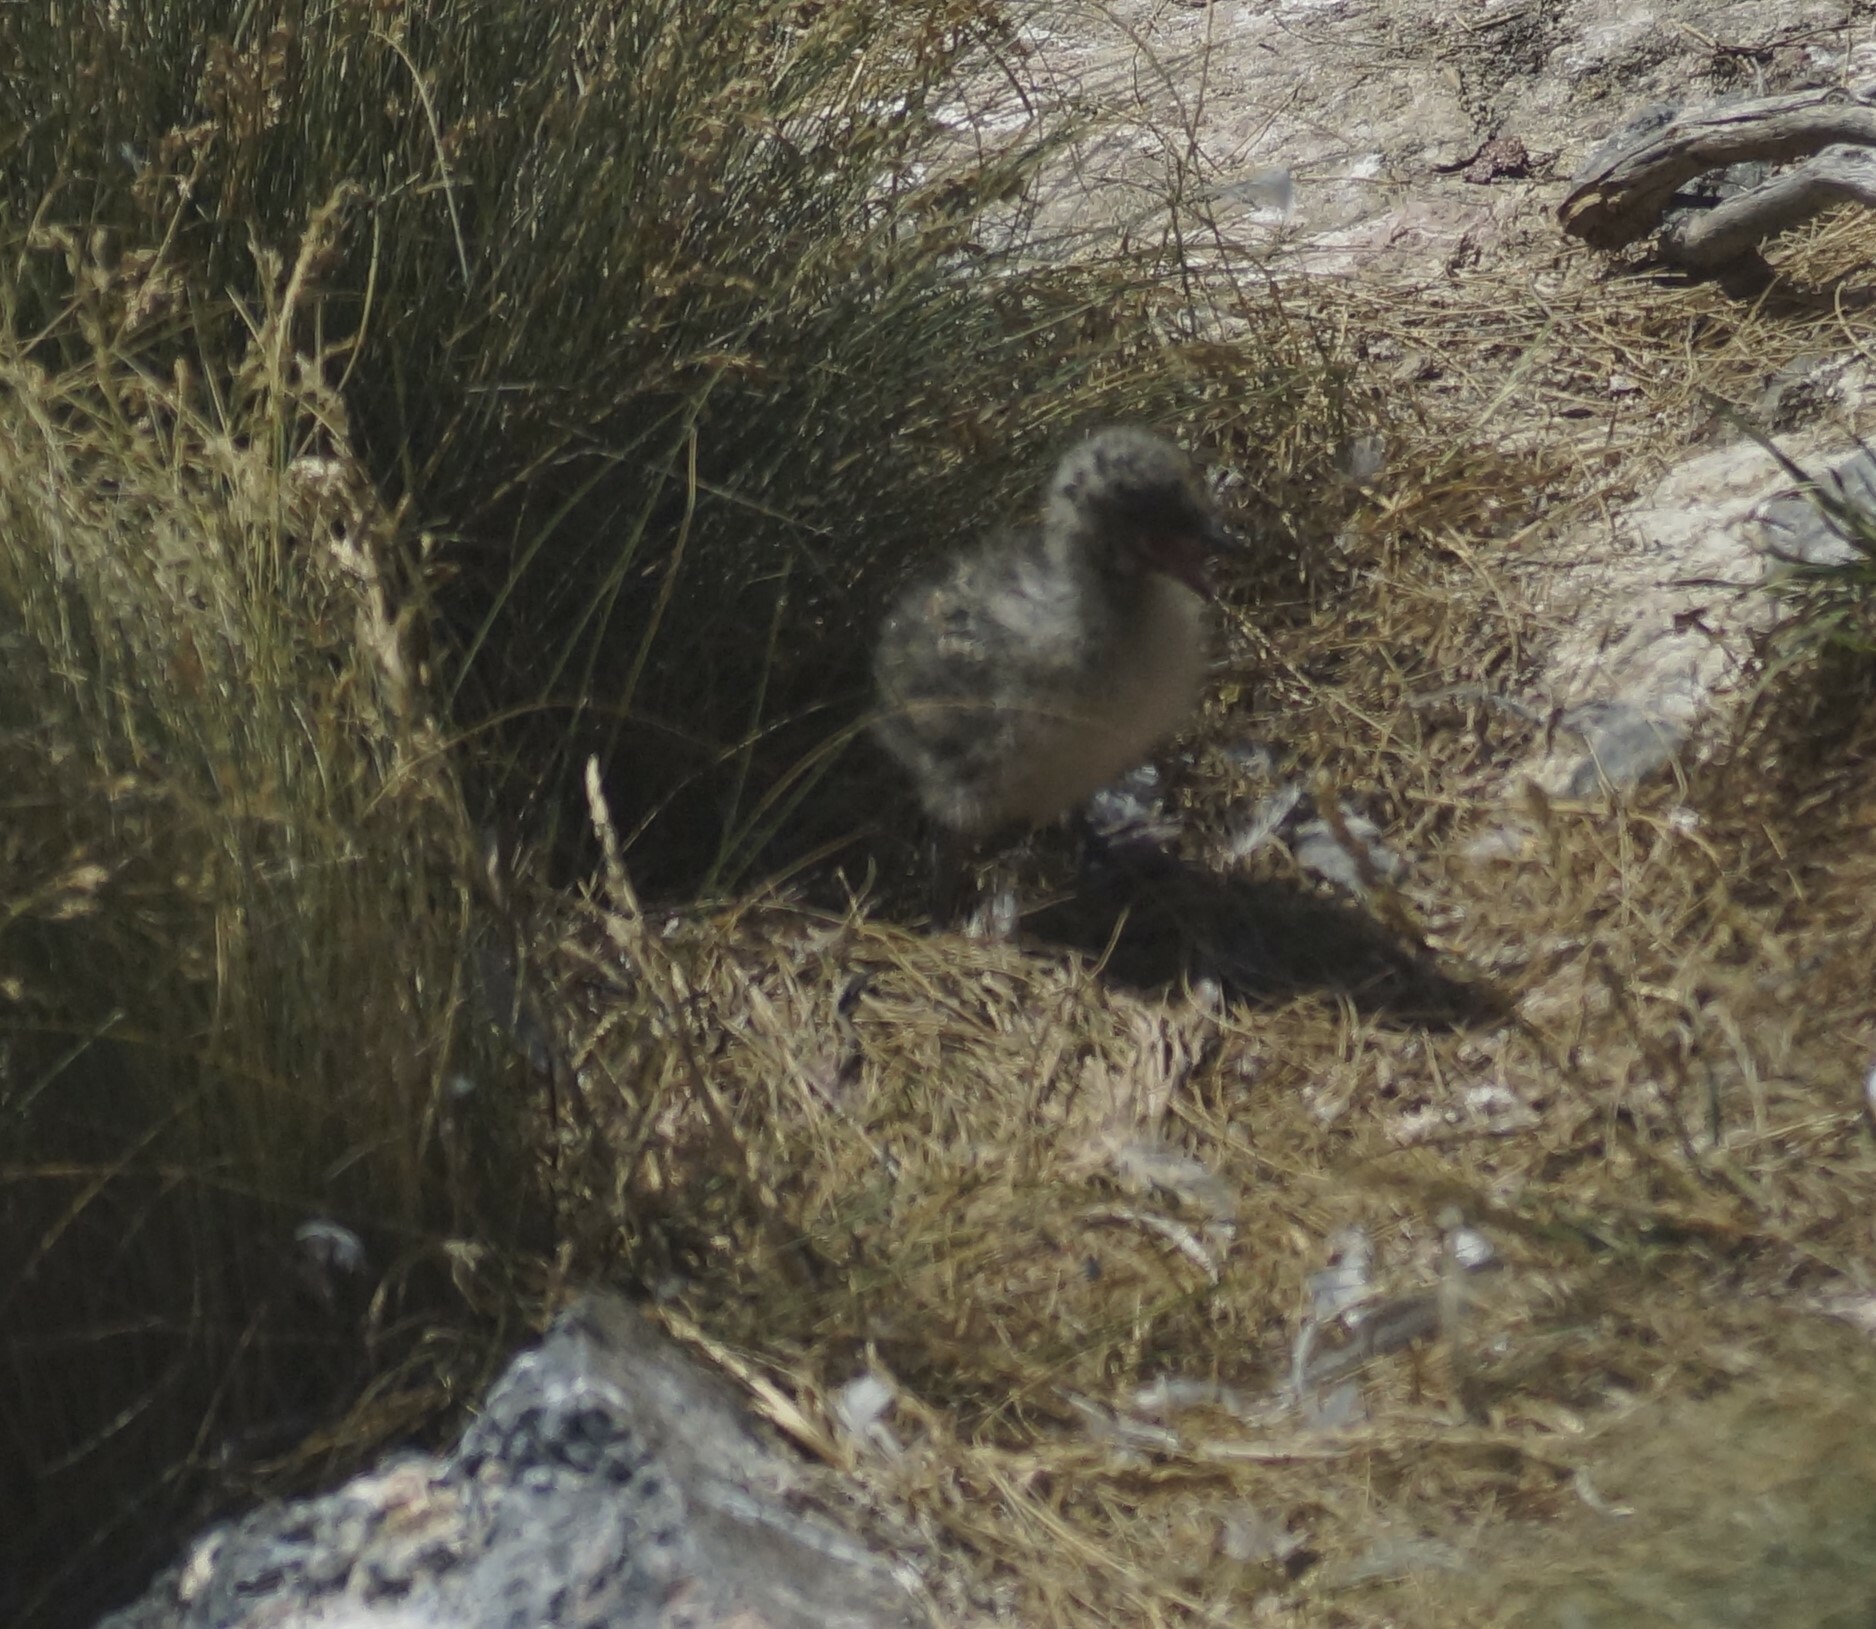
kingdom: Animalia
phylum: Chordata
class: Aves
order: Charadriiformes
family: Laridae
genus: Chroicocephalus
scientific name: Chroicocephalus novaehollandiae
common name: Silver gull
